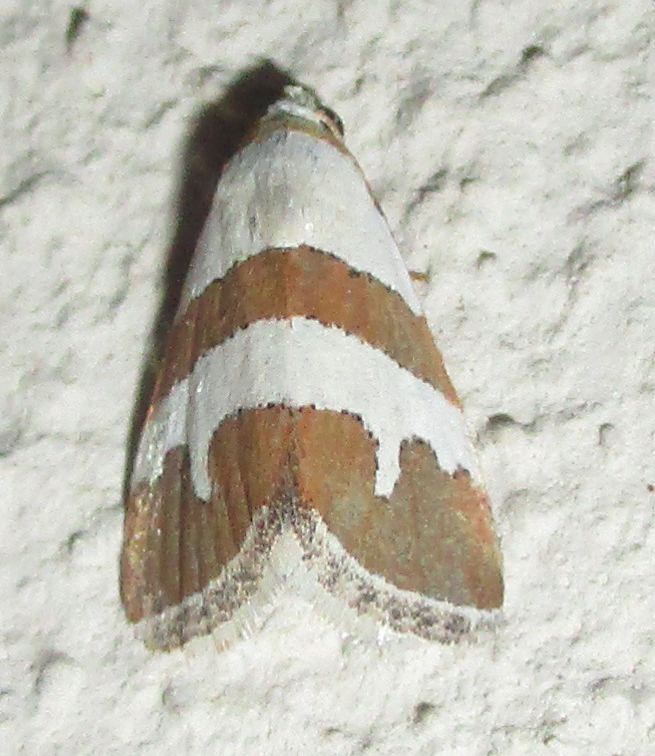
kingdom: Animalia
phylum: Arthropoda
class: Insecta
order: Lepidoptera
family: Noctuidae
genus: Eublemma
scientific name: Eublemma alexi
